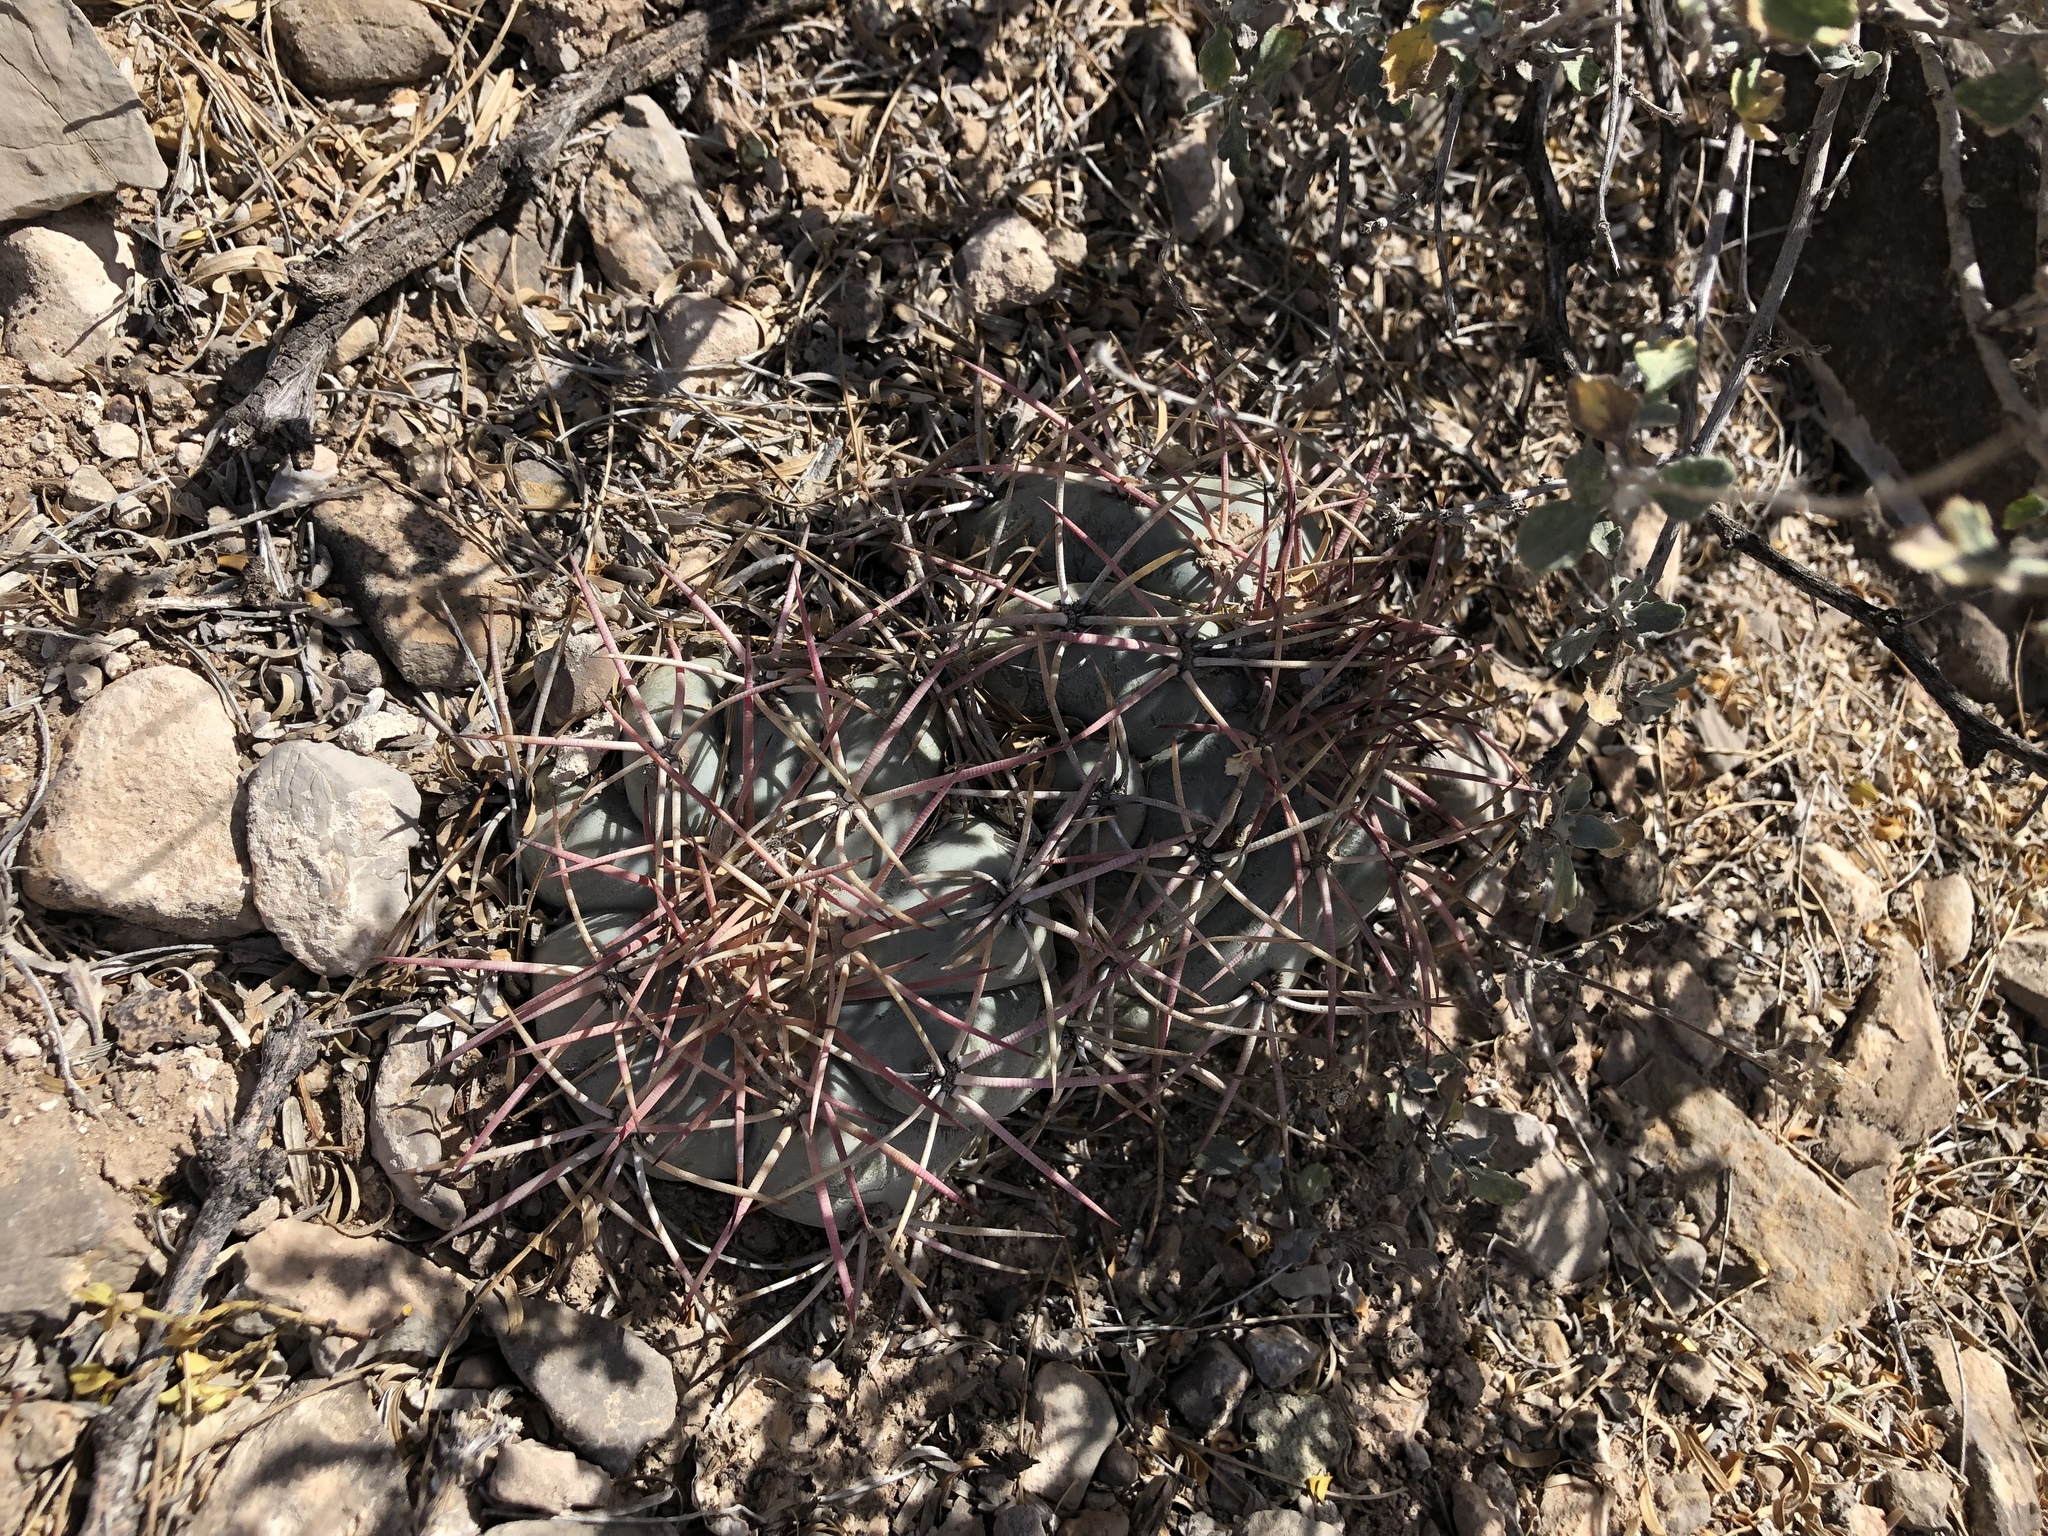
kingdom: Plantae
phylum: Tracheophyta
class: Magnoliopsida
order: Caryophyllales
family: Cactaceae
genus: Echinocactus
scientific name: Echinocactus horizonthalonius
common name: Devilshead
